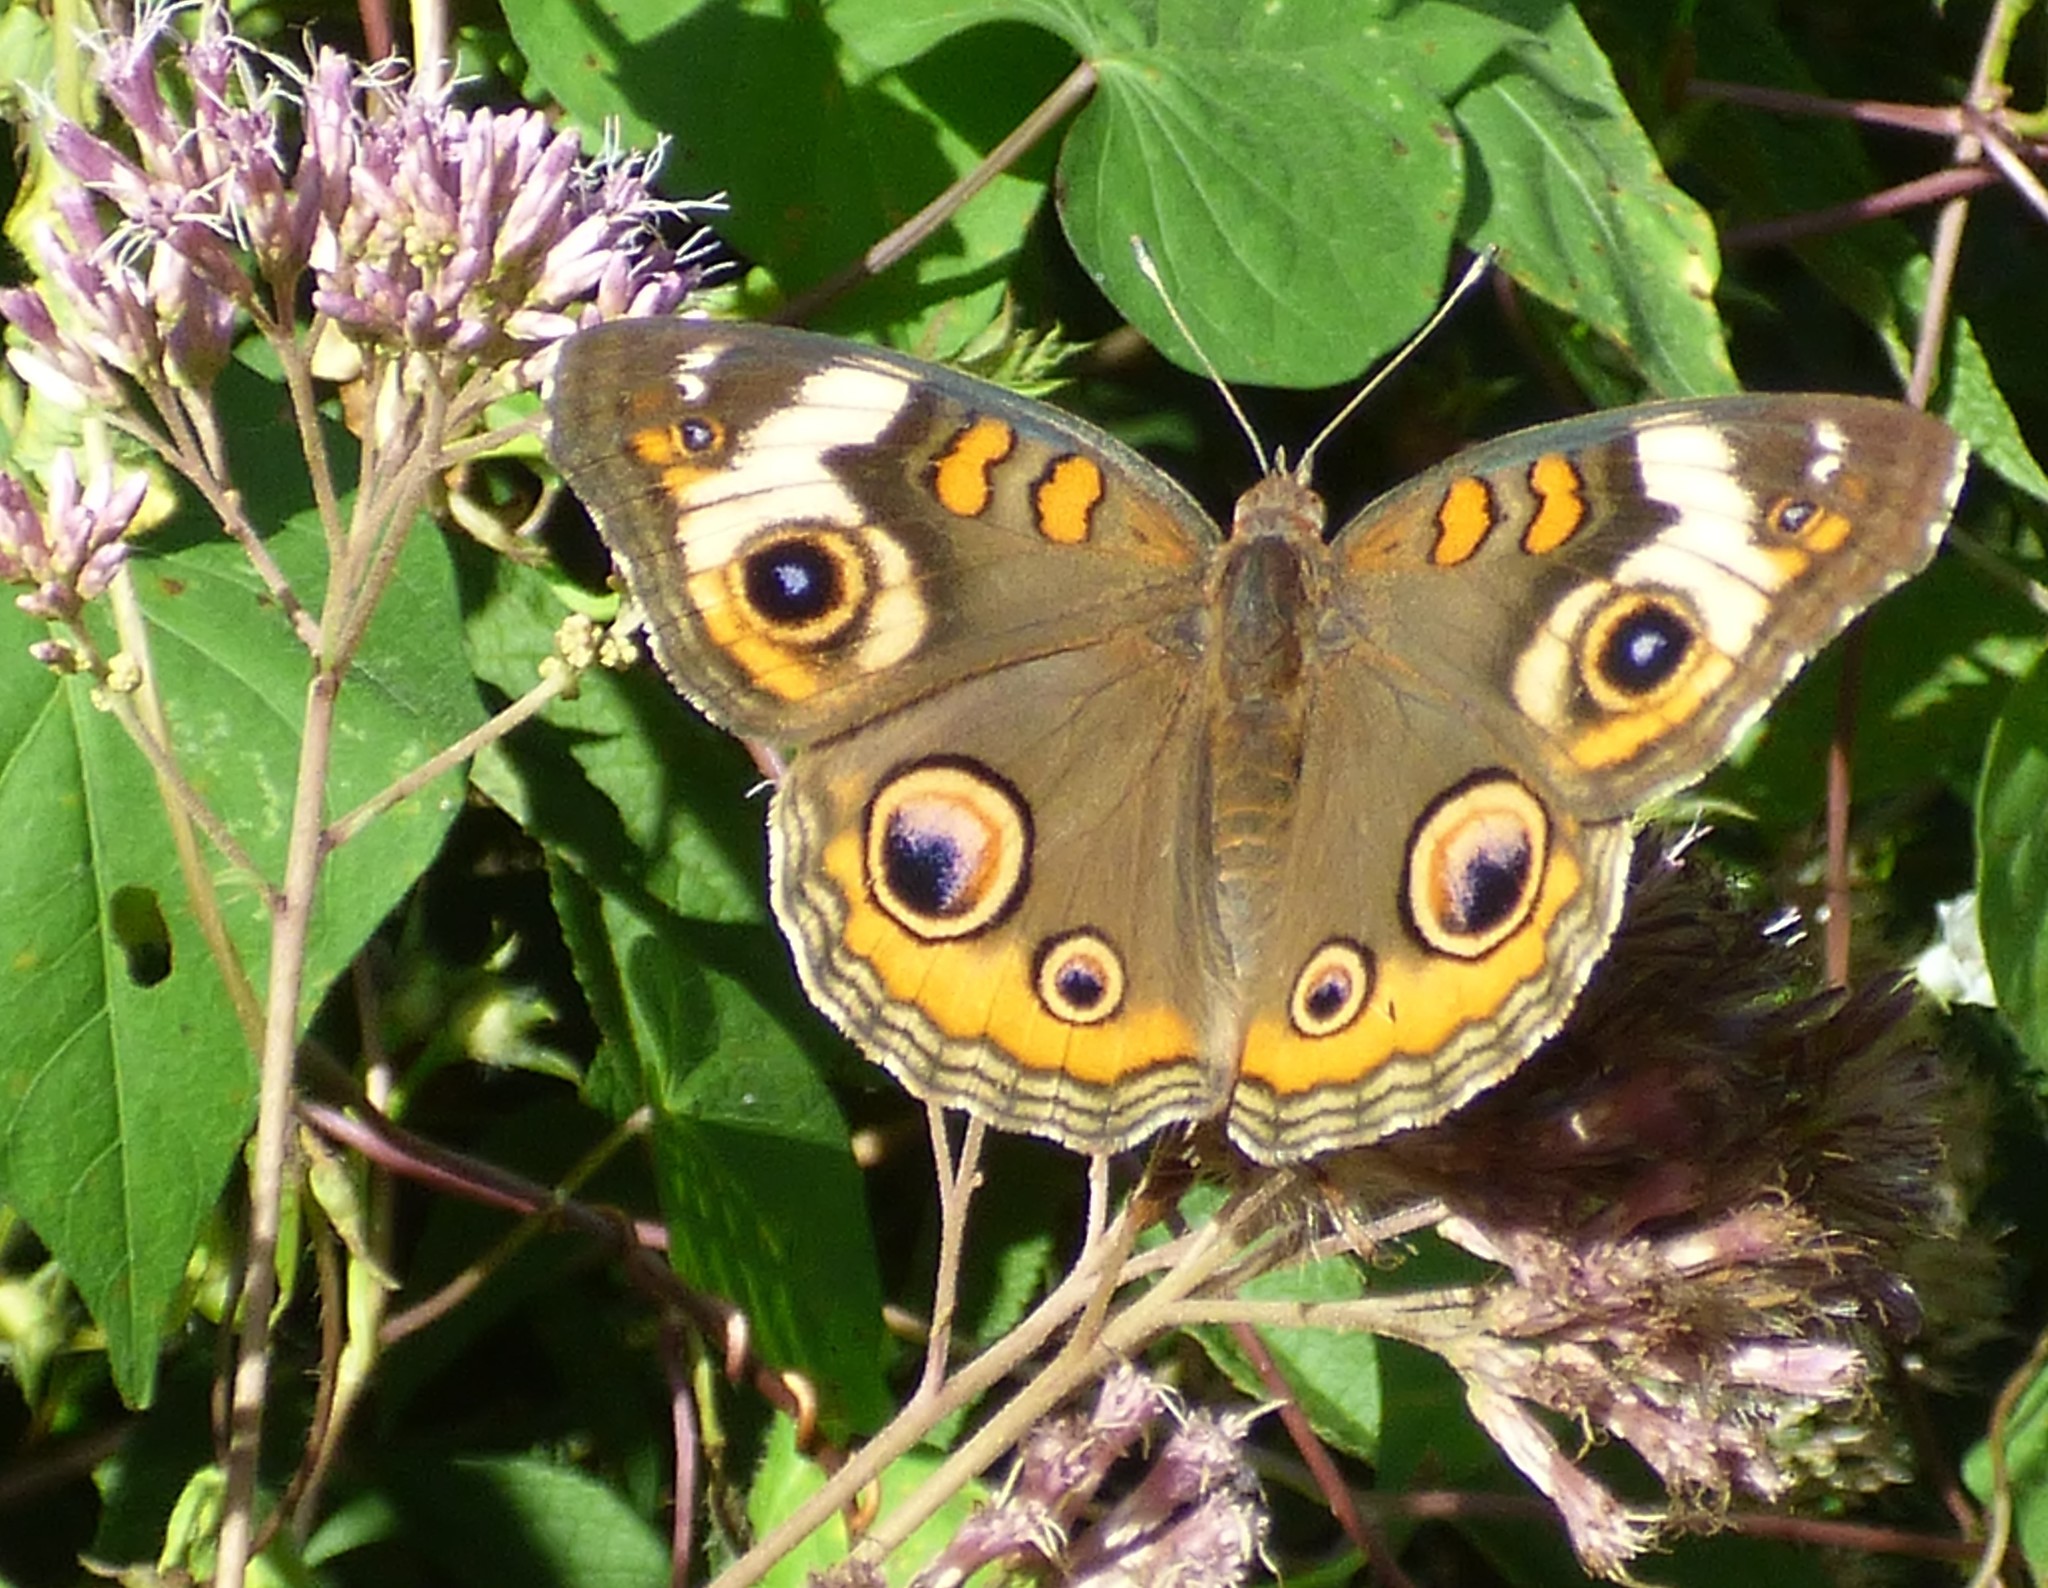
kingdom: Animalia
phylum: Arthropoda
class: Insecta
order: Lepidoptera
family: Nymphalidae
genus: Junonia
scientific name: Junonia coenia
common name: Common buckeye
